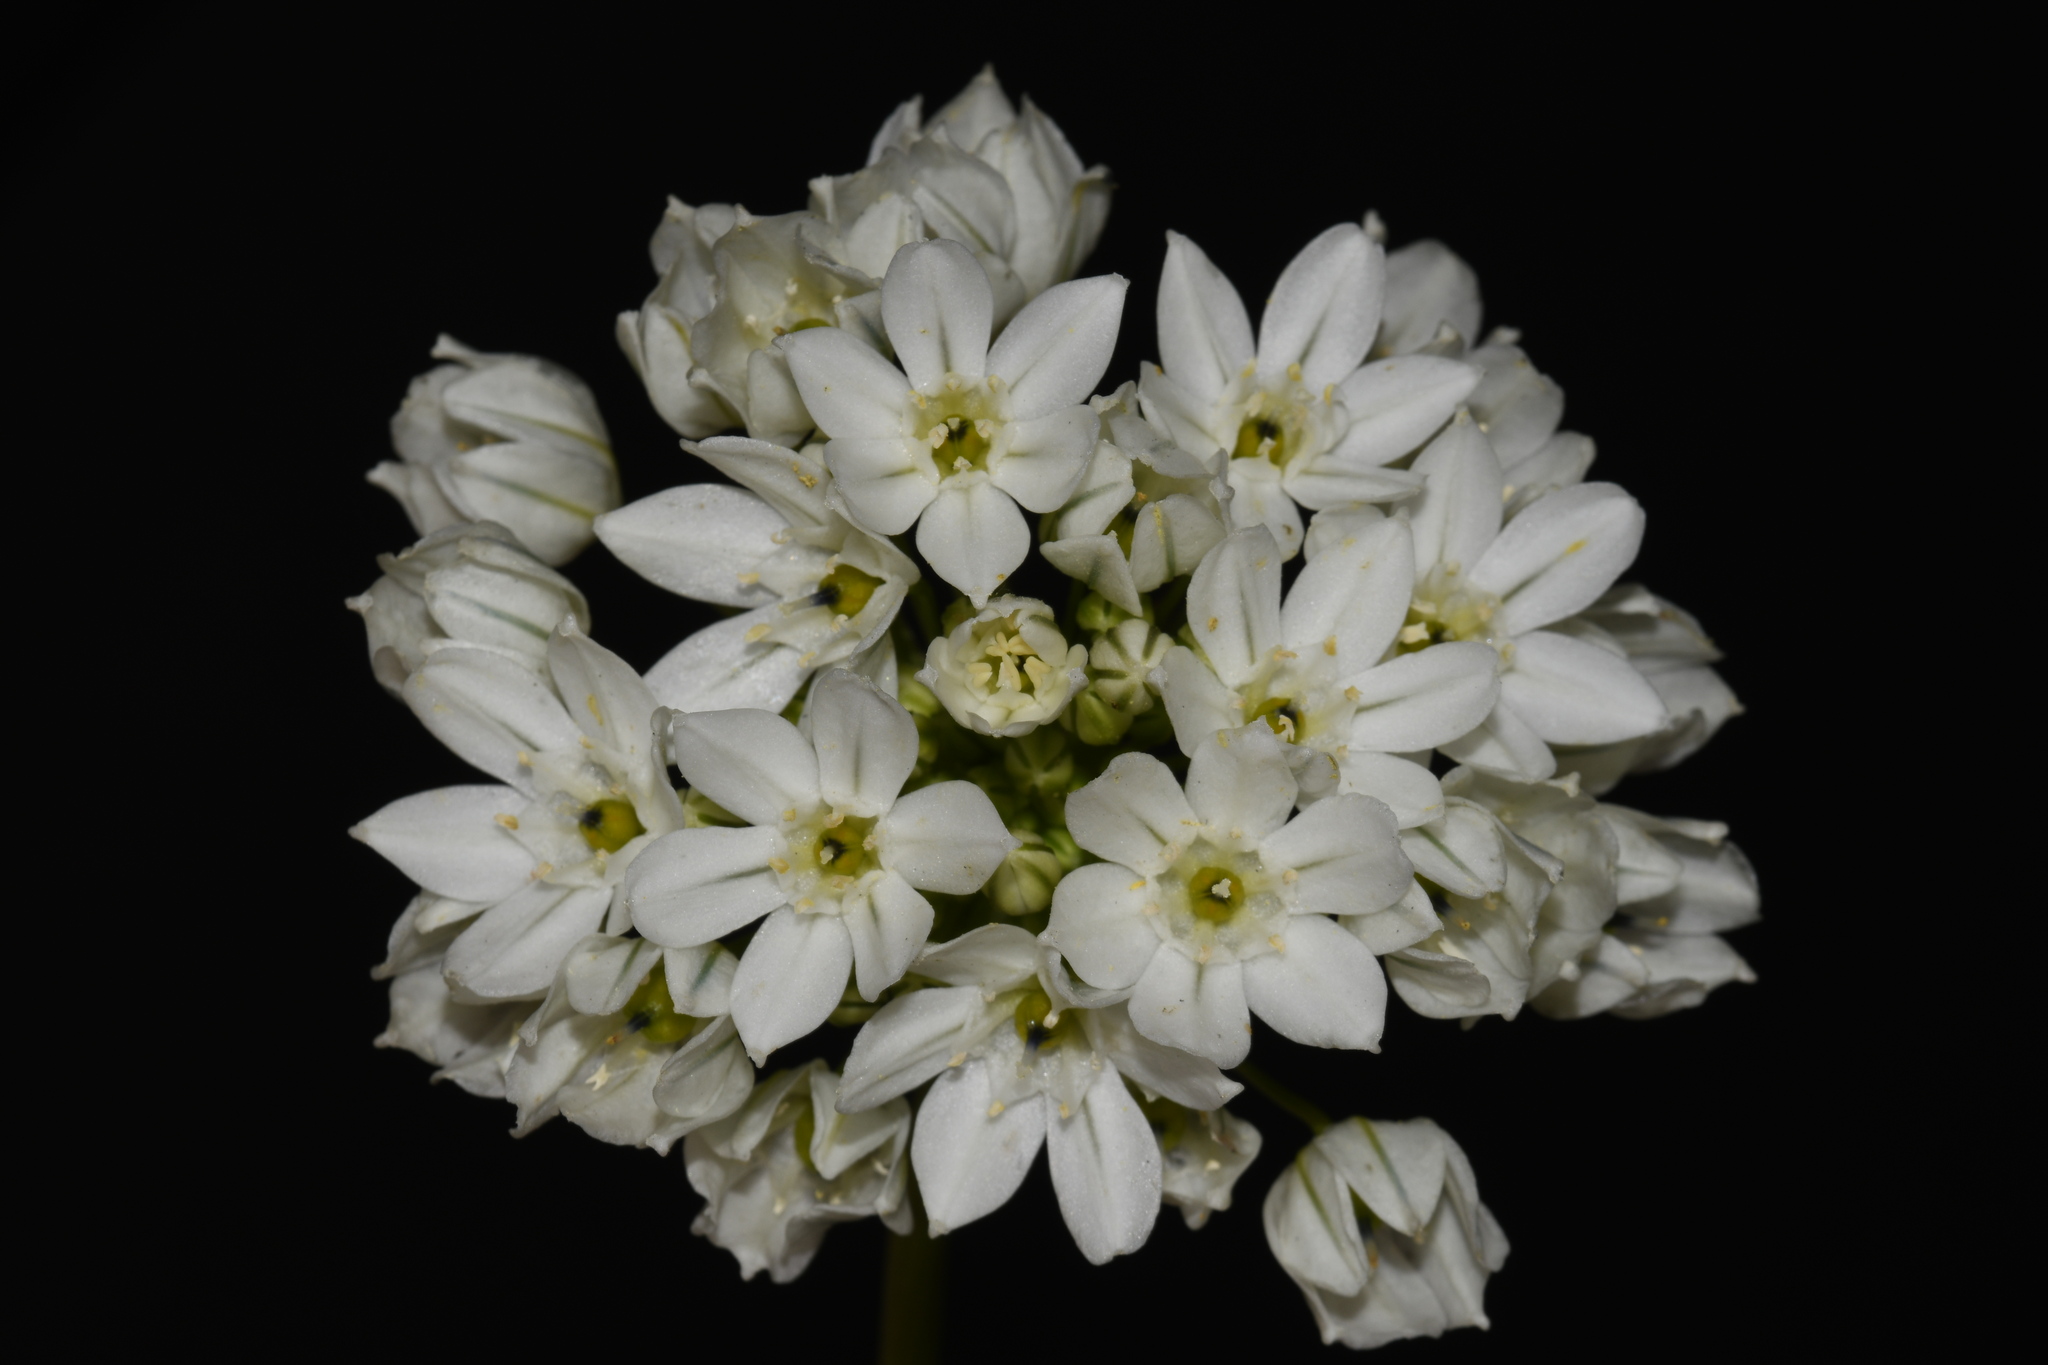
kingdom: Plantae
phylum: Tracheophyta
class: Liliopsida
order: Asparagales
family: Asparagaceae
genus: Triteleia
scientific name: Triteleia hyacinthina
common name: White brodiaea
